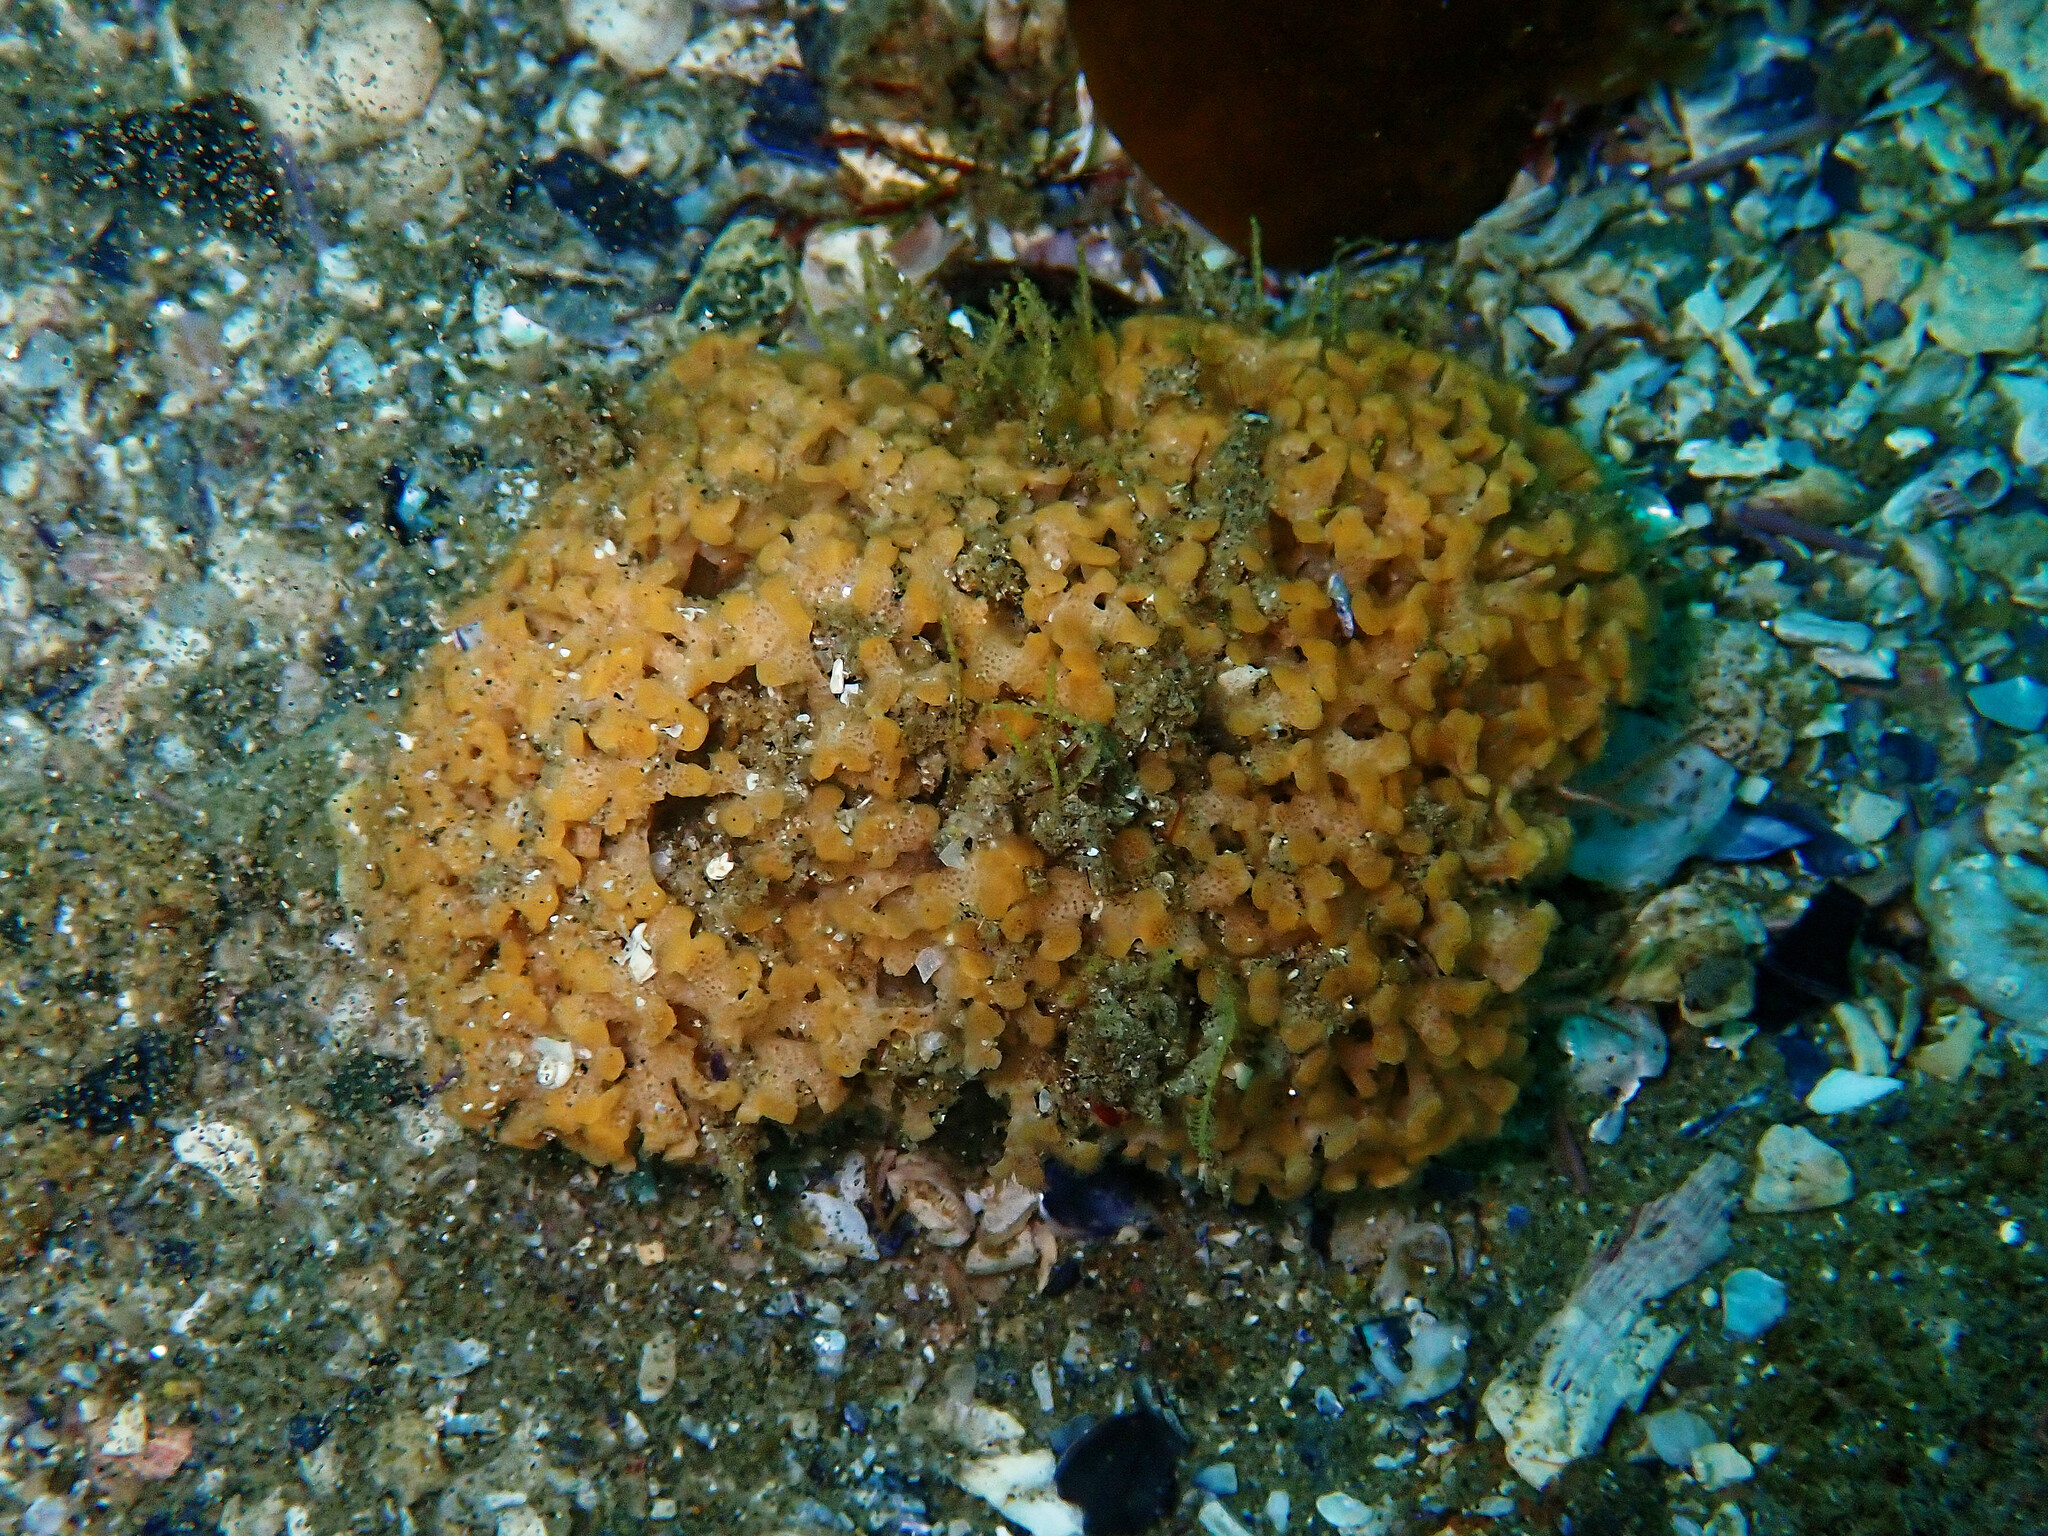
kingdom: Animalia
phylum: Bryozoa
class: Stenolaemata
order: Cyclostomatida
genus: Diaperoforma
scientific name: Diaperoforma californica
